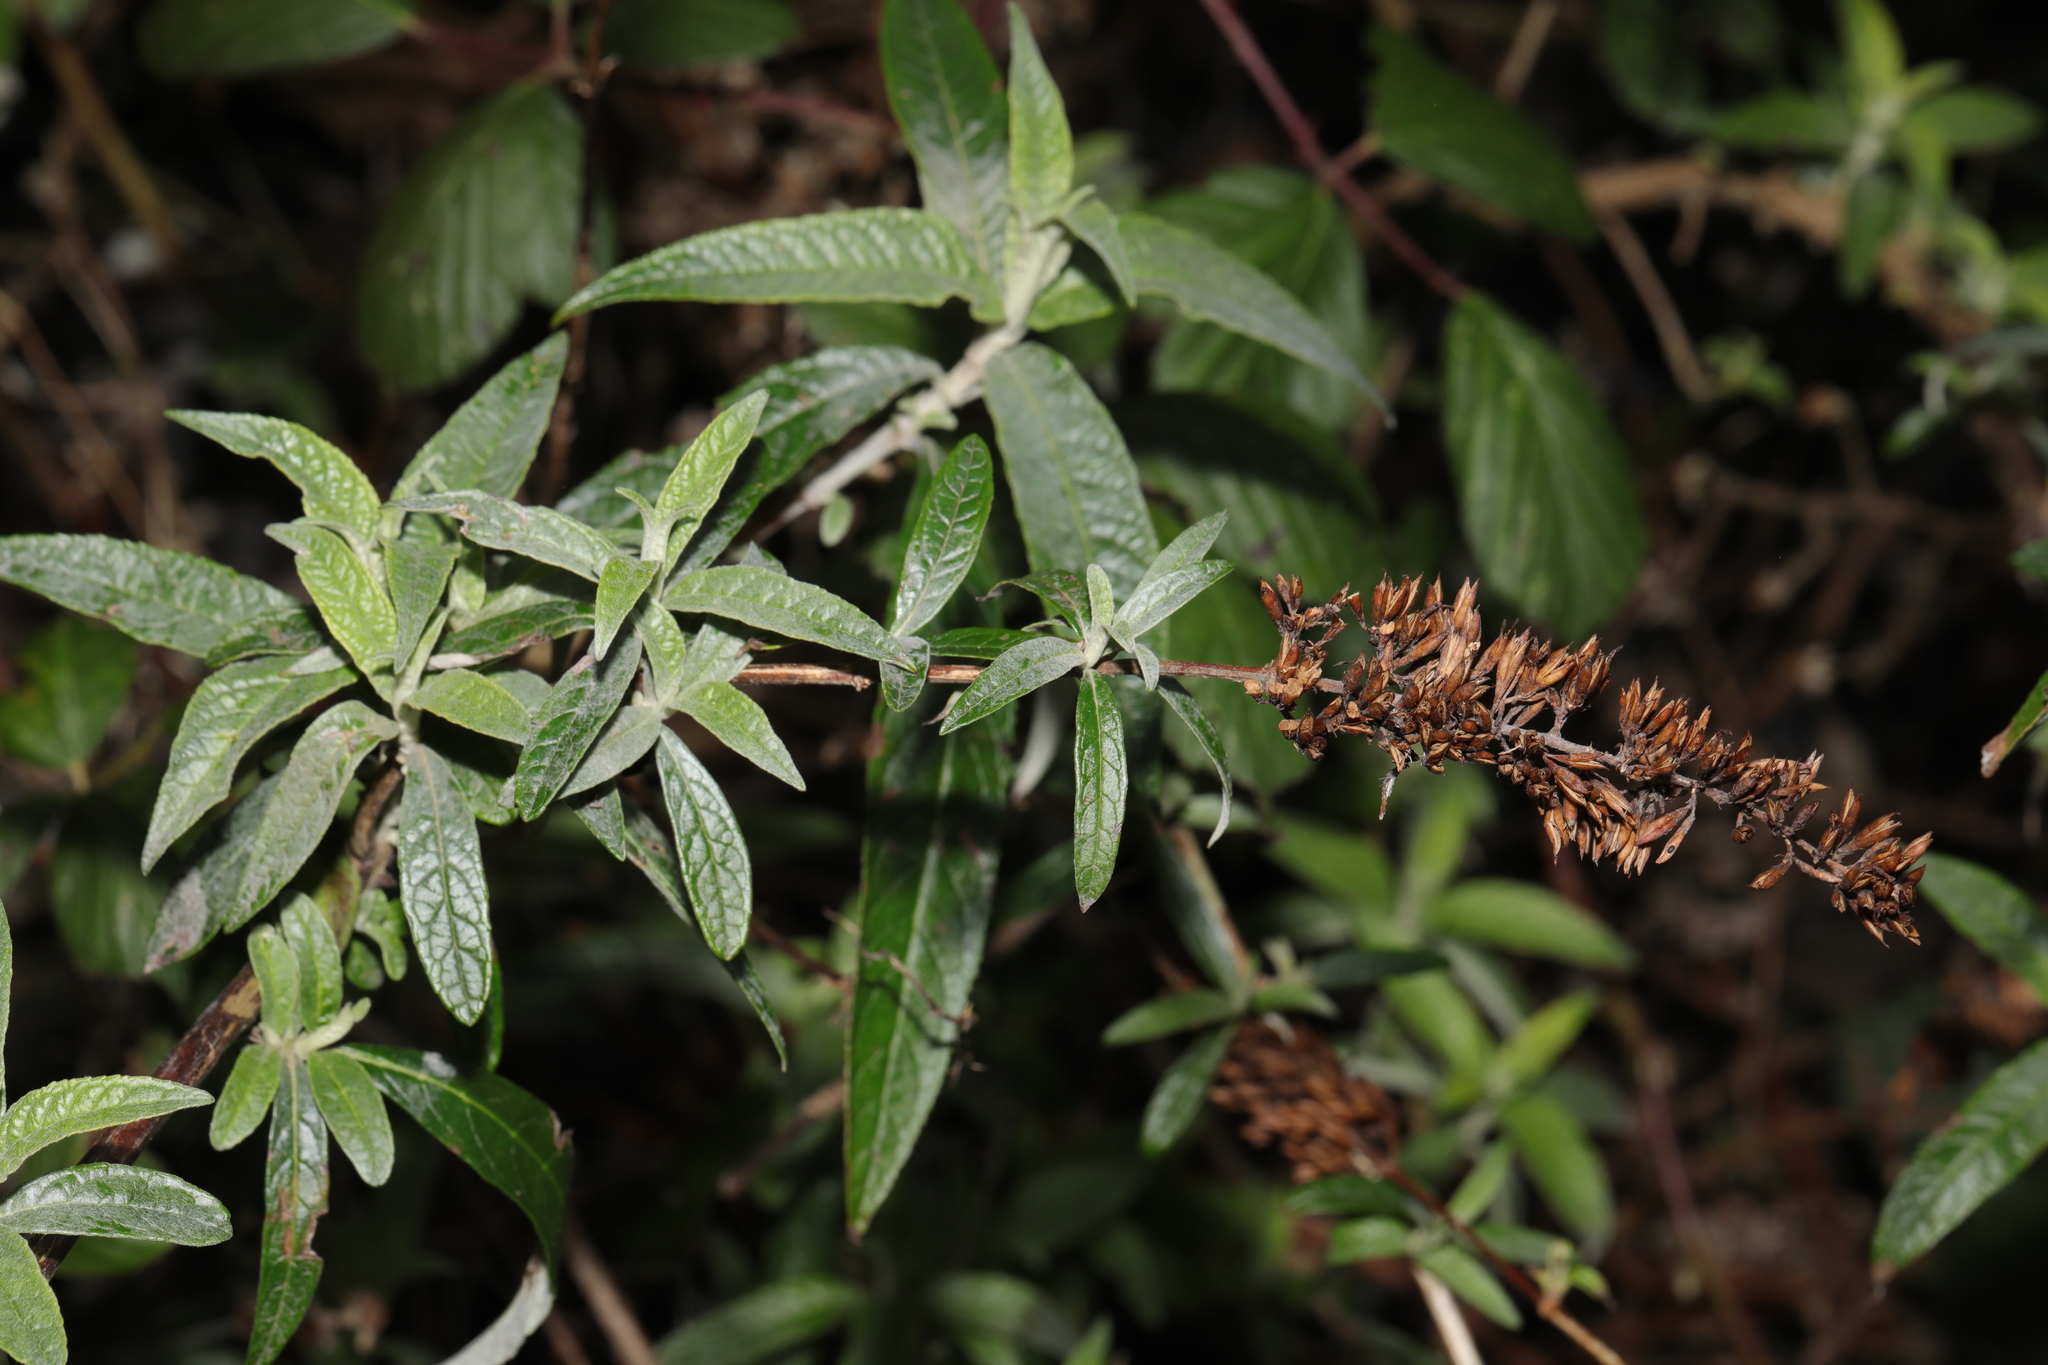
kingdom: Plantae
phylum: Tracheophyta
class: Magnoliopsida
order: Lamiales
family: Scrophulariaceae
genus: Buddleja
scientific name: Buddleja davidii
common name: Butterfly-bush
